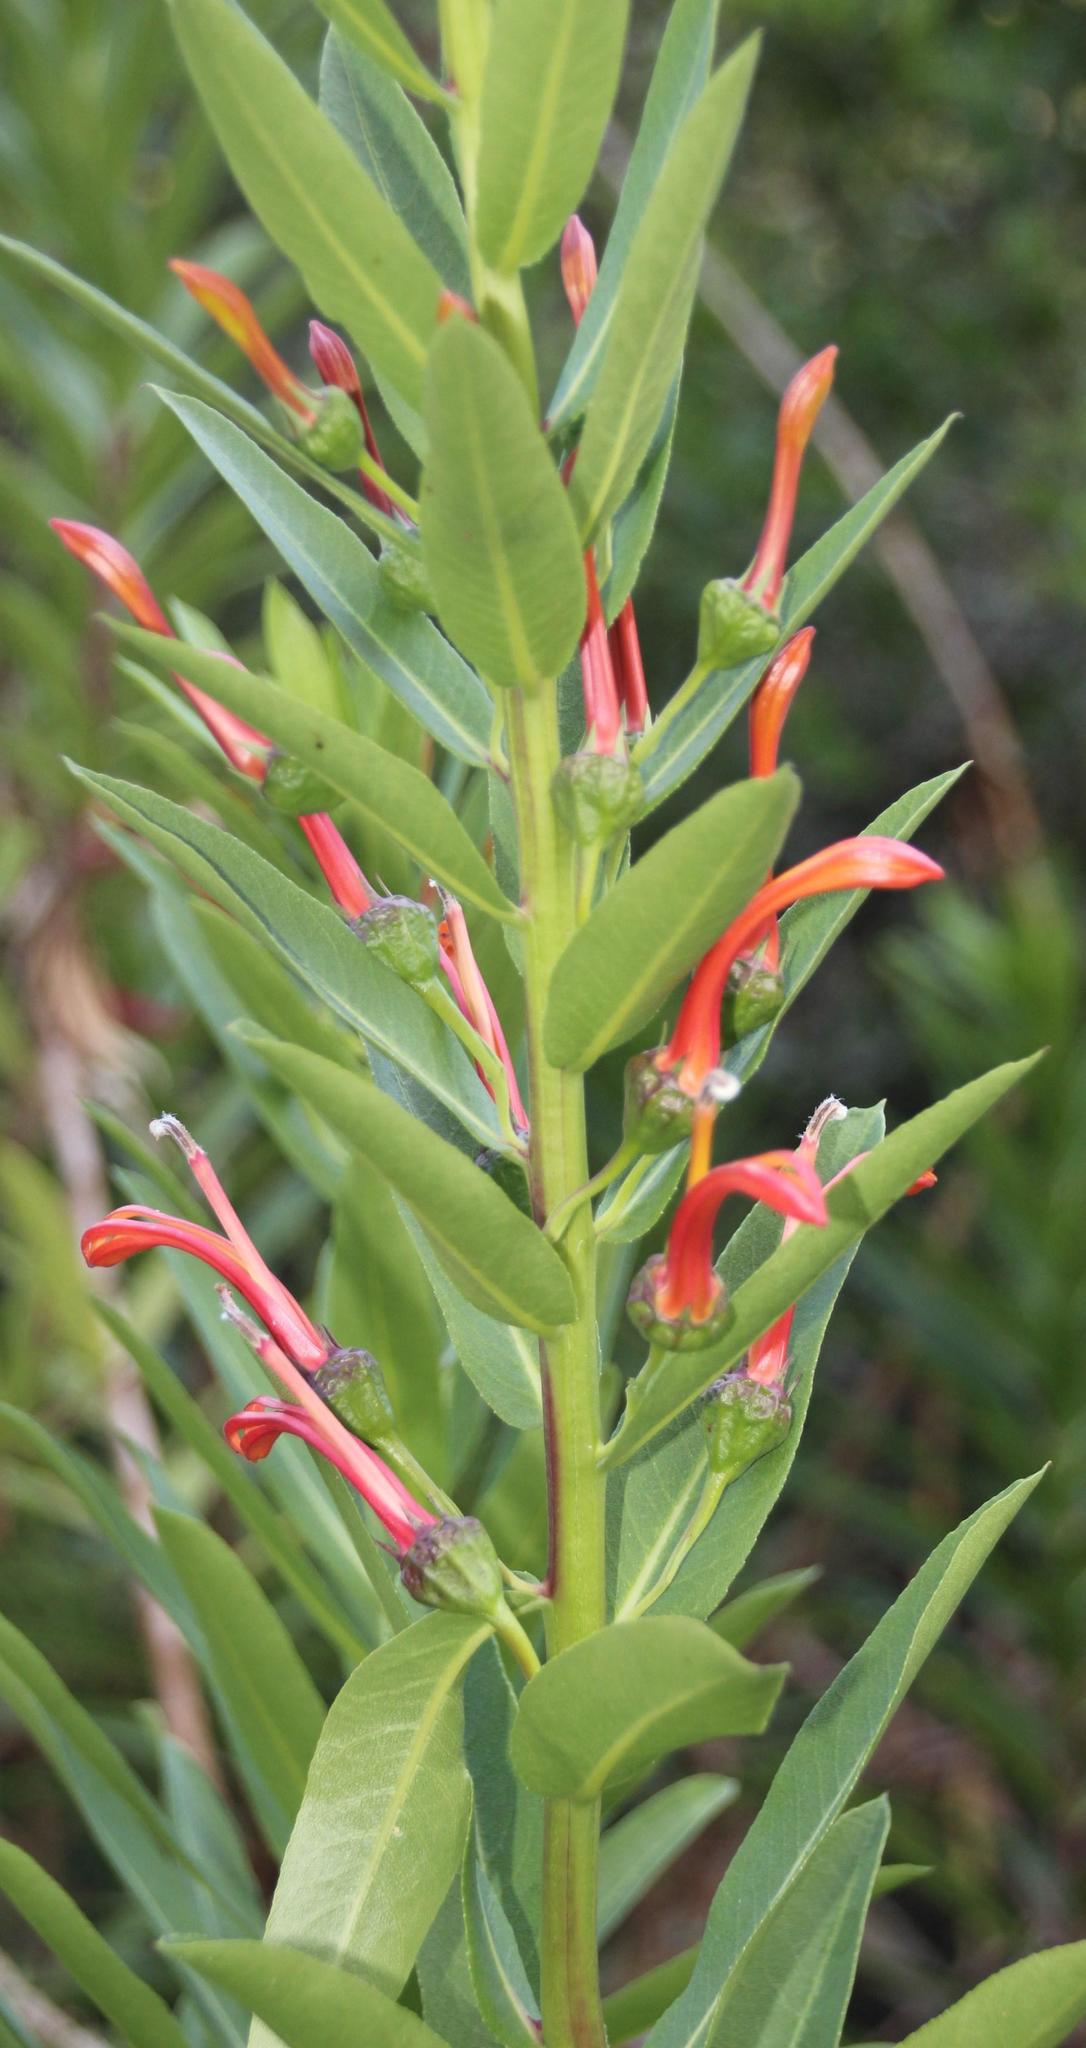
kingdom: Plantae
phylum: Tracheophyta
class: Magnoliopsida
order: Asterales
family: Campanulaceae
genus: Lobelia
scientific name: Lobelia excelsa
